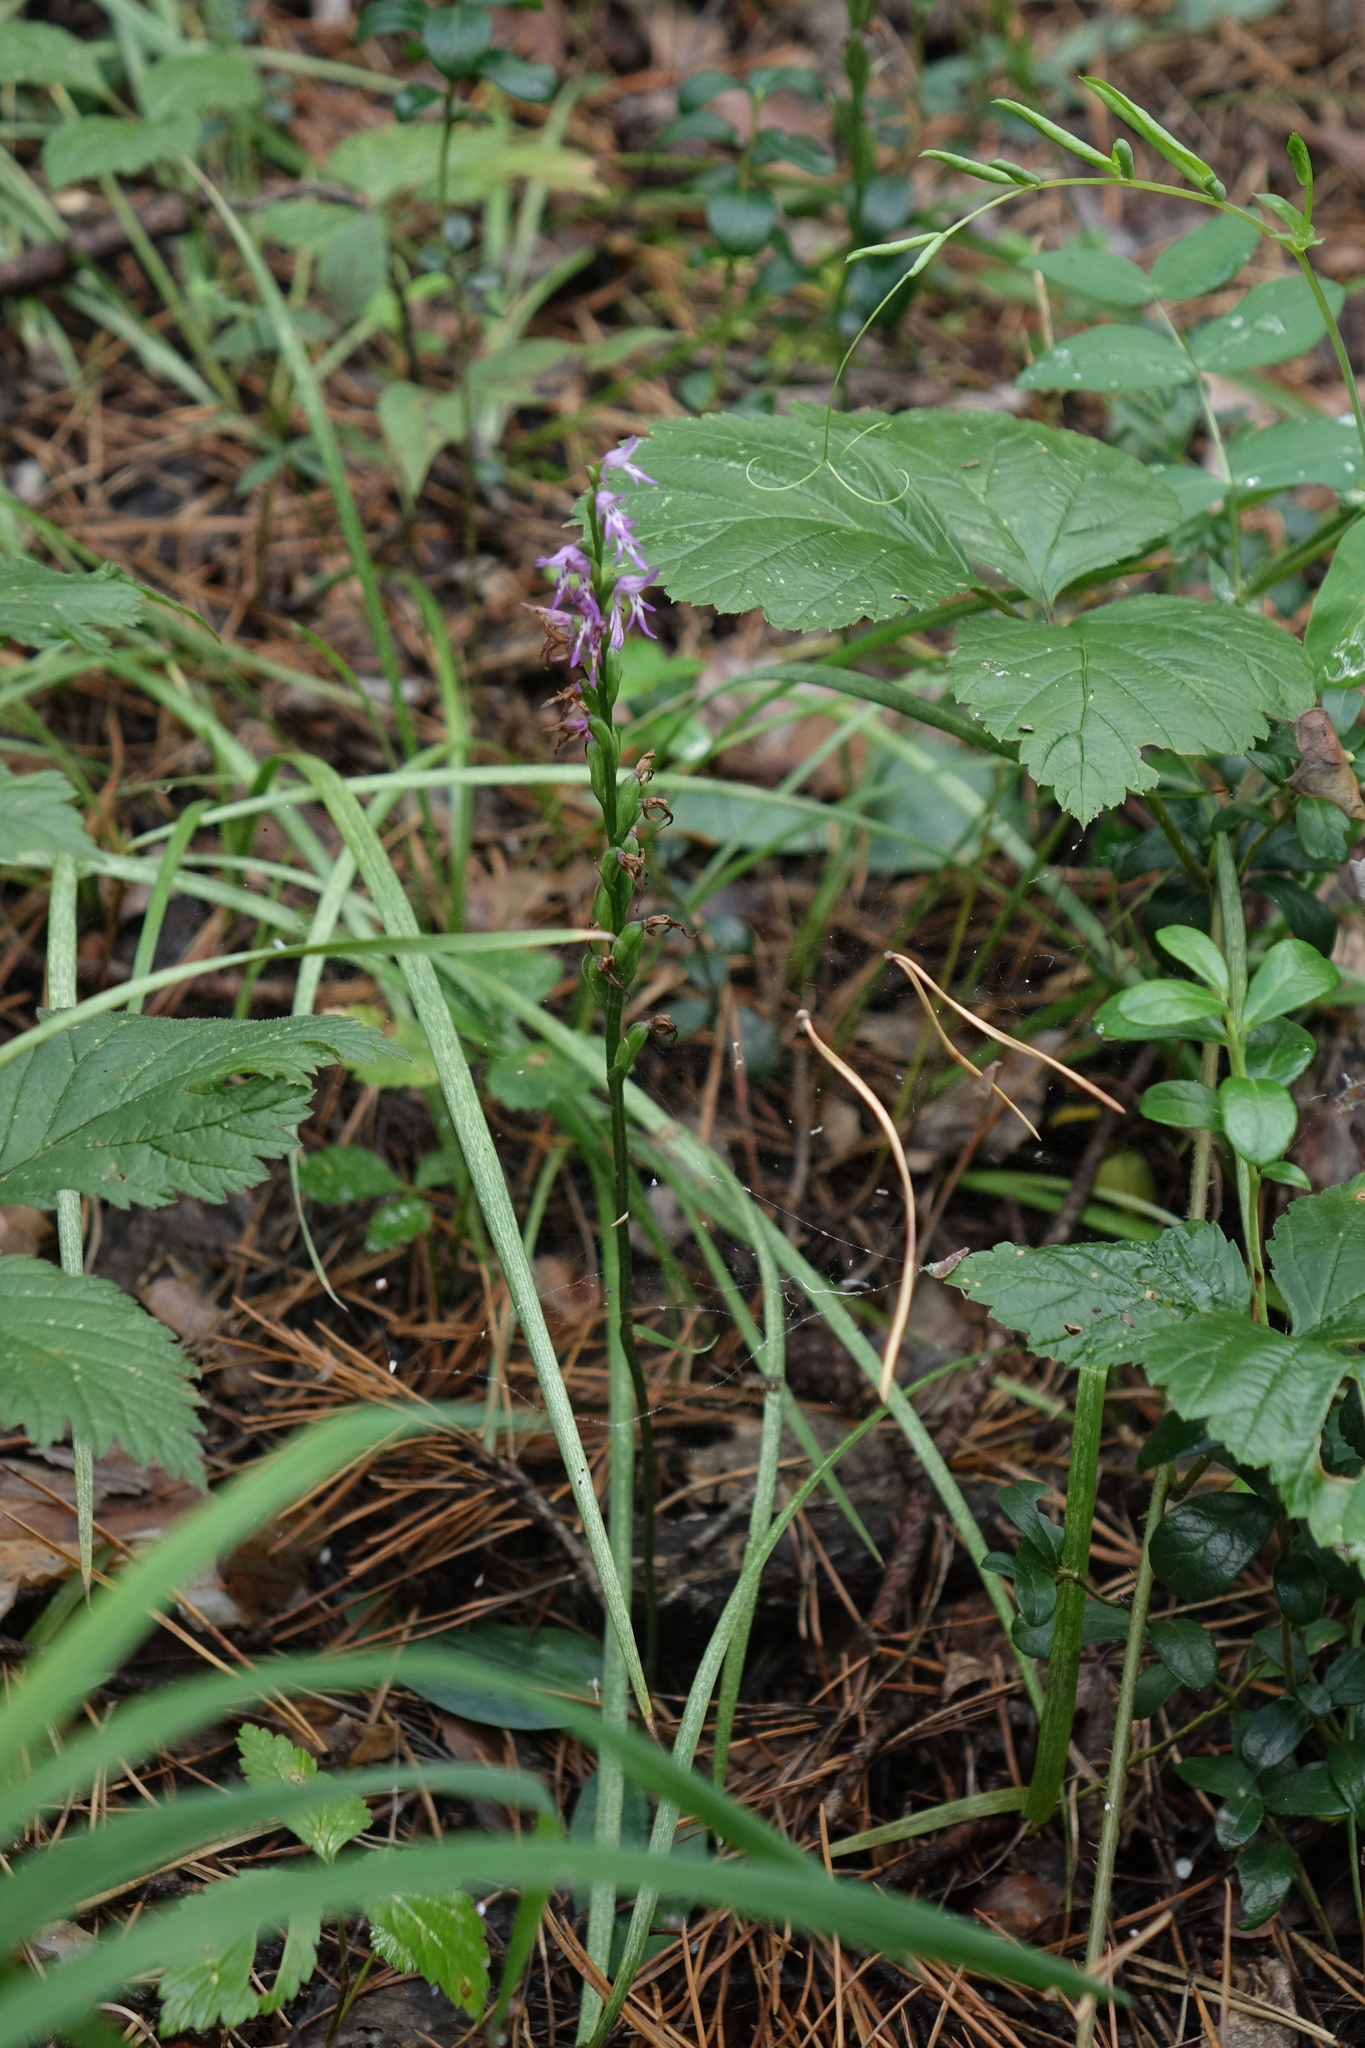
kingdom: Plantae
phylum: Tracheophyta
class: Liliopsida
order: Asparagales
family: Orchidaceae
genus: Hemipilia
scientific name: Hemipilia cucullata
